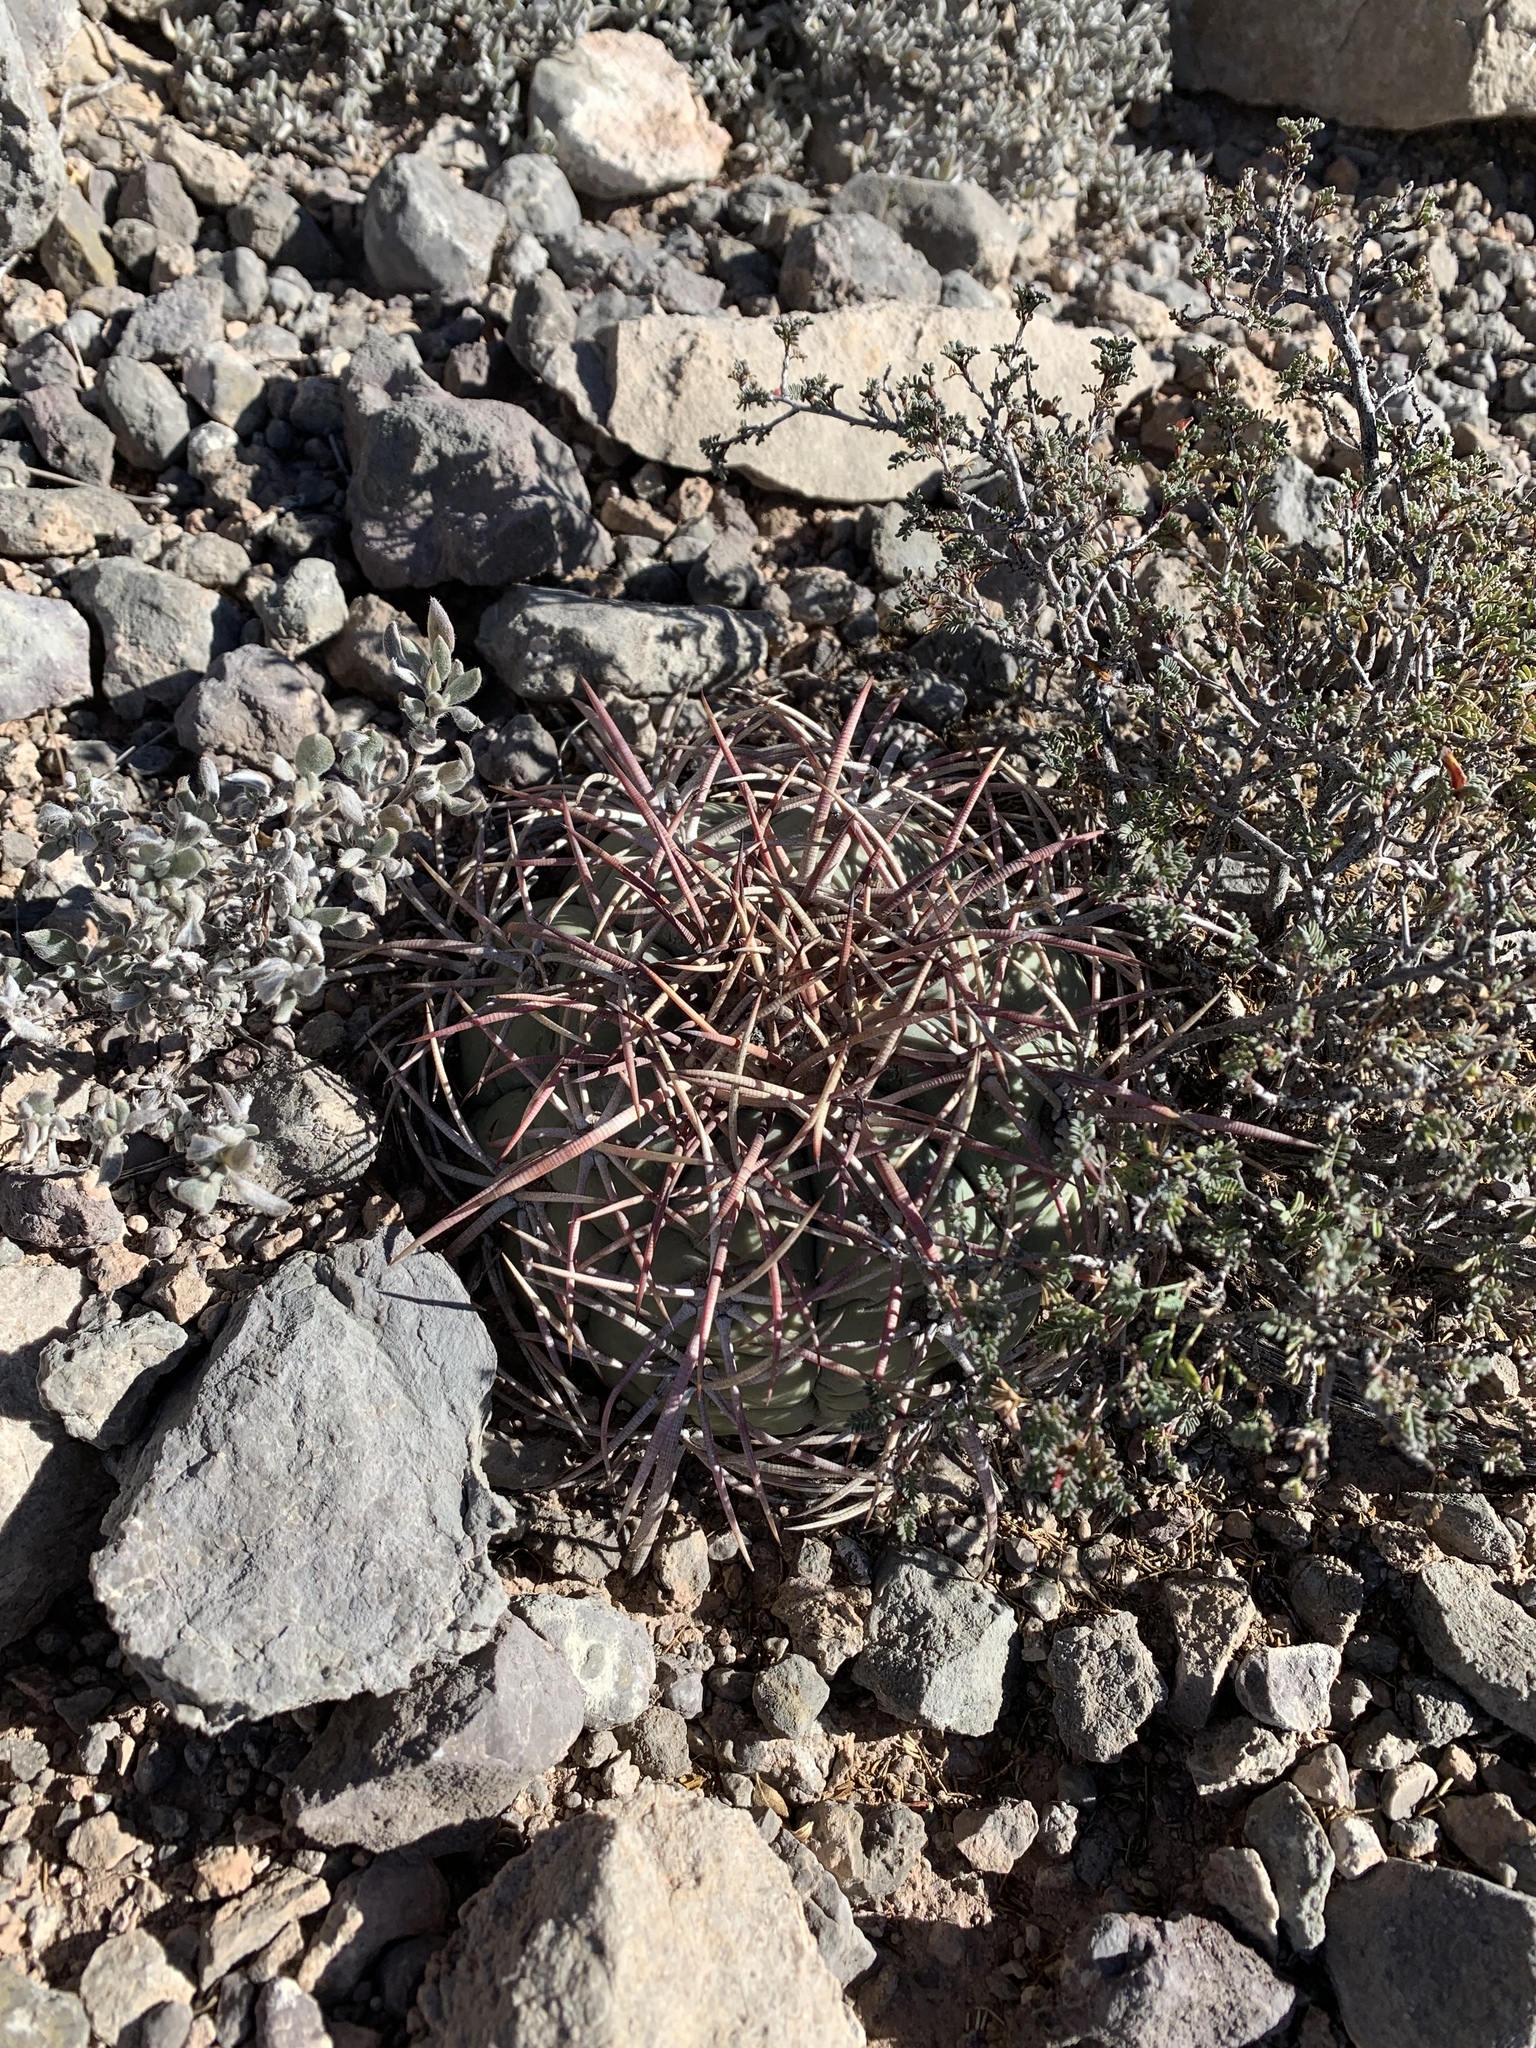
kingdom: Plantae
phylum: Tracheophyta
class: Magnoliopsida
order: Caryophyllales
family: Cactaceae
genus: Echinocactus
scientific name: Echinocactus horizonthalonius
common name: Devilshead
